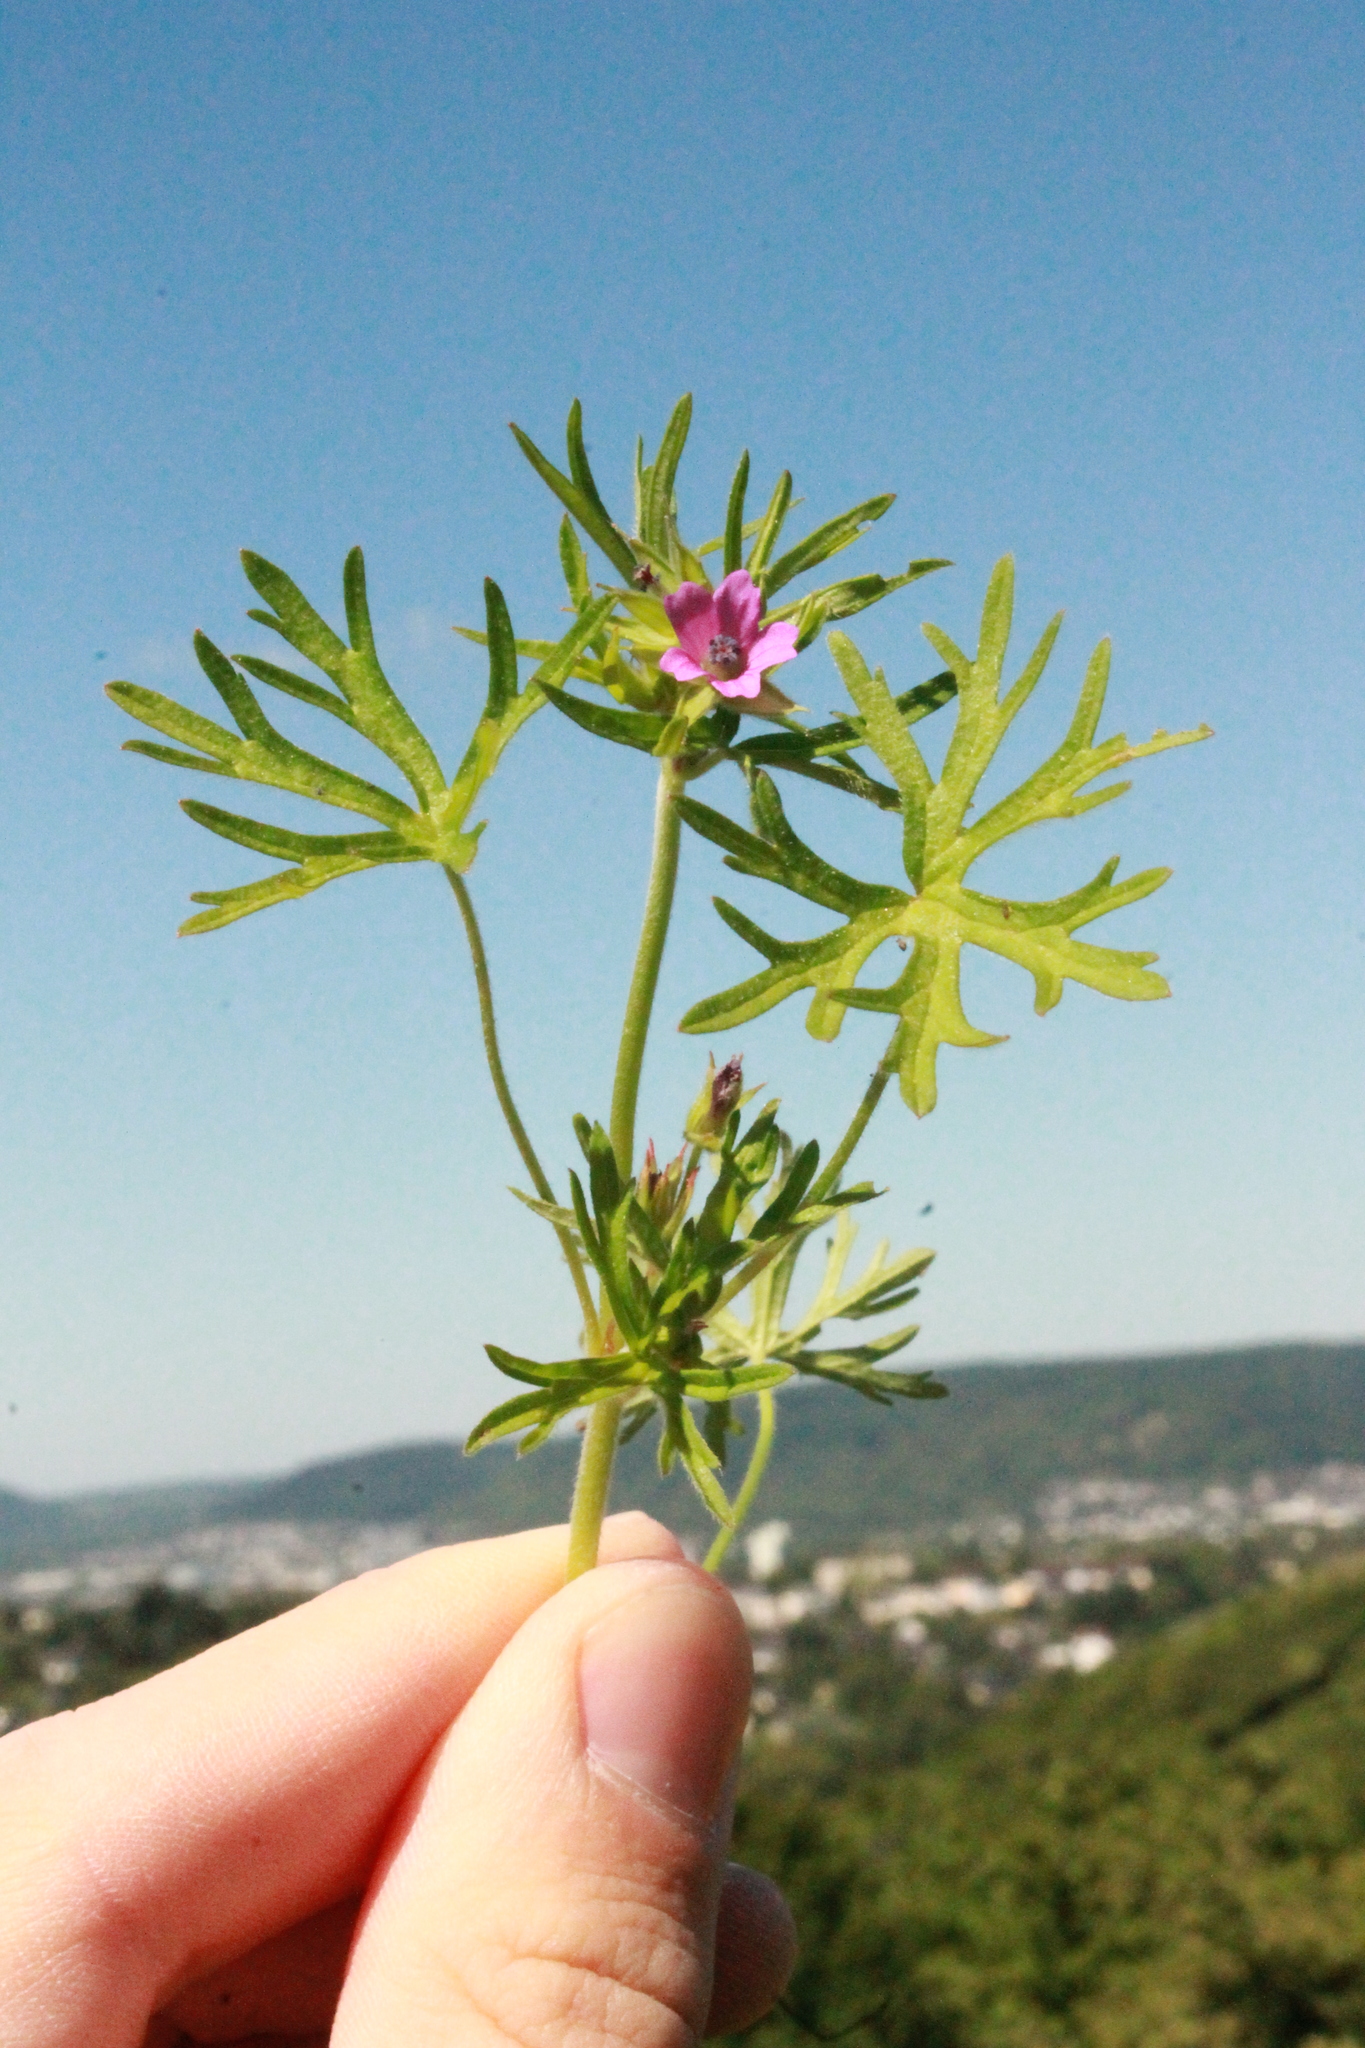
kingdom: Plantae
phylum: Tracheophyta
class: Magnoliopsida
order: Geraniales
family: Geraniaceae
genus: Geranium
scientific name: Geranium dissectum
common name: Cut-leaved crane's-bill
